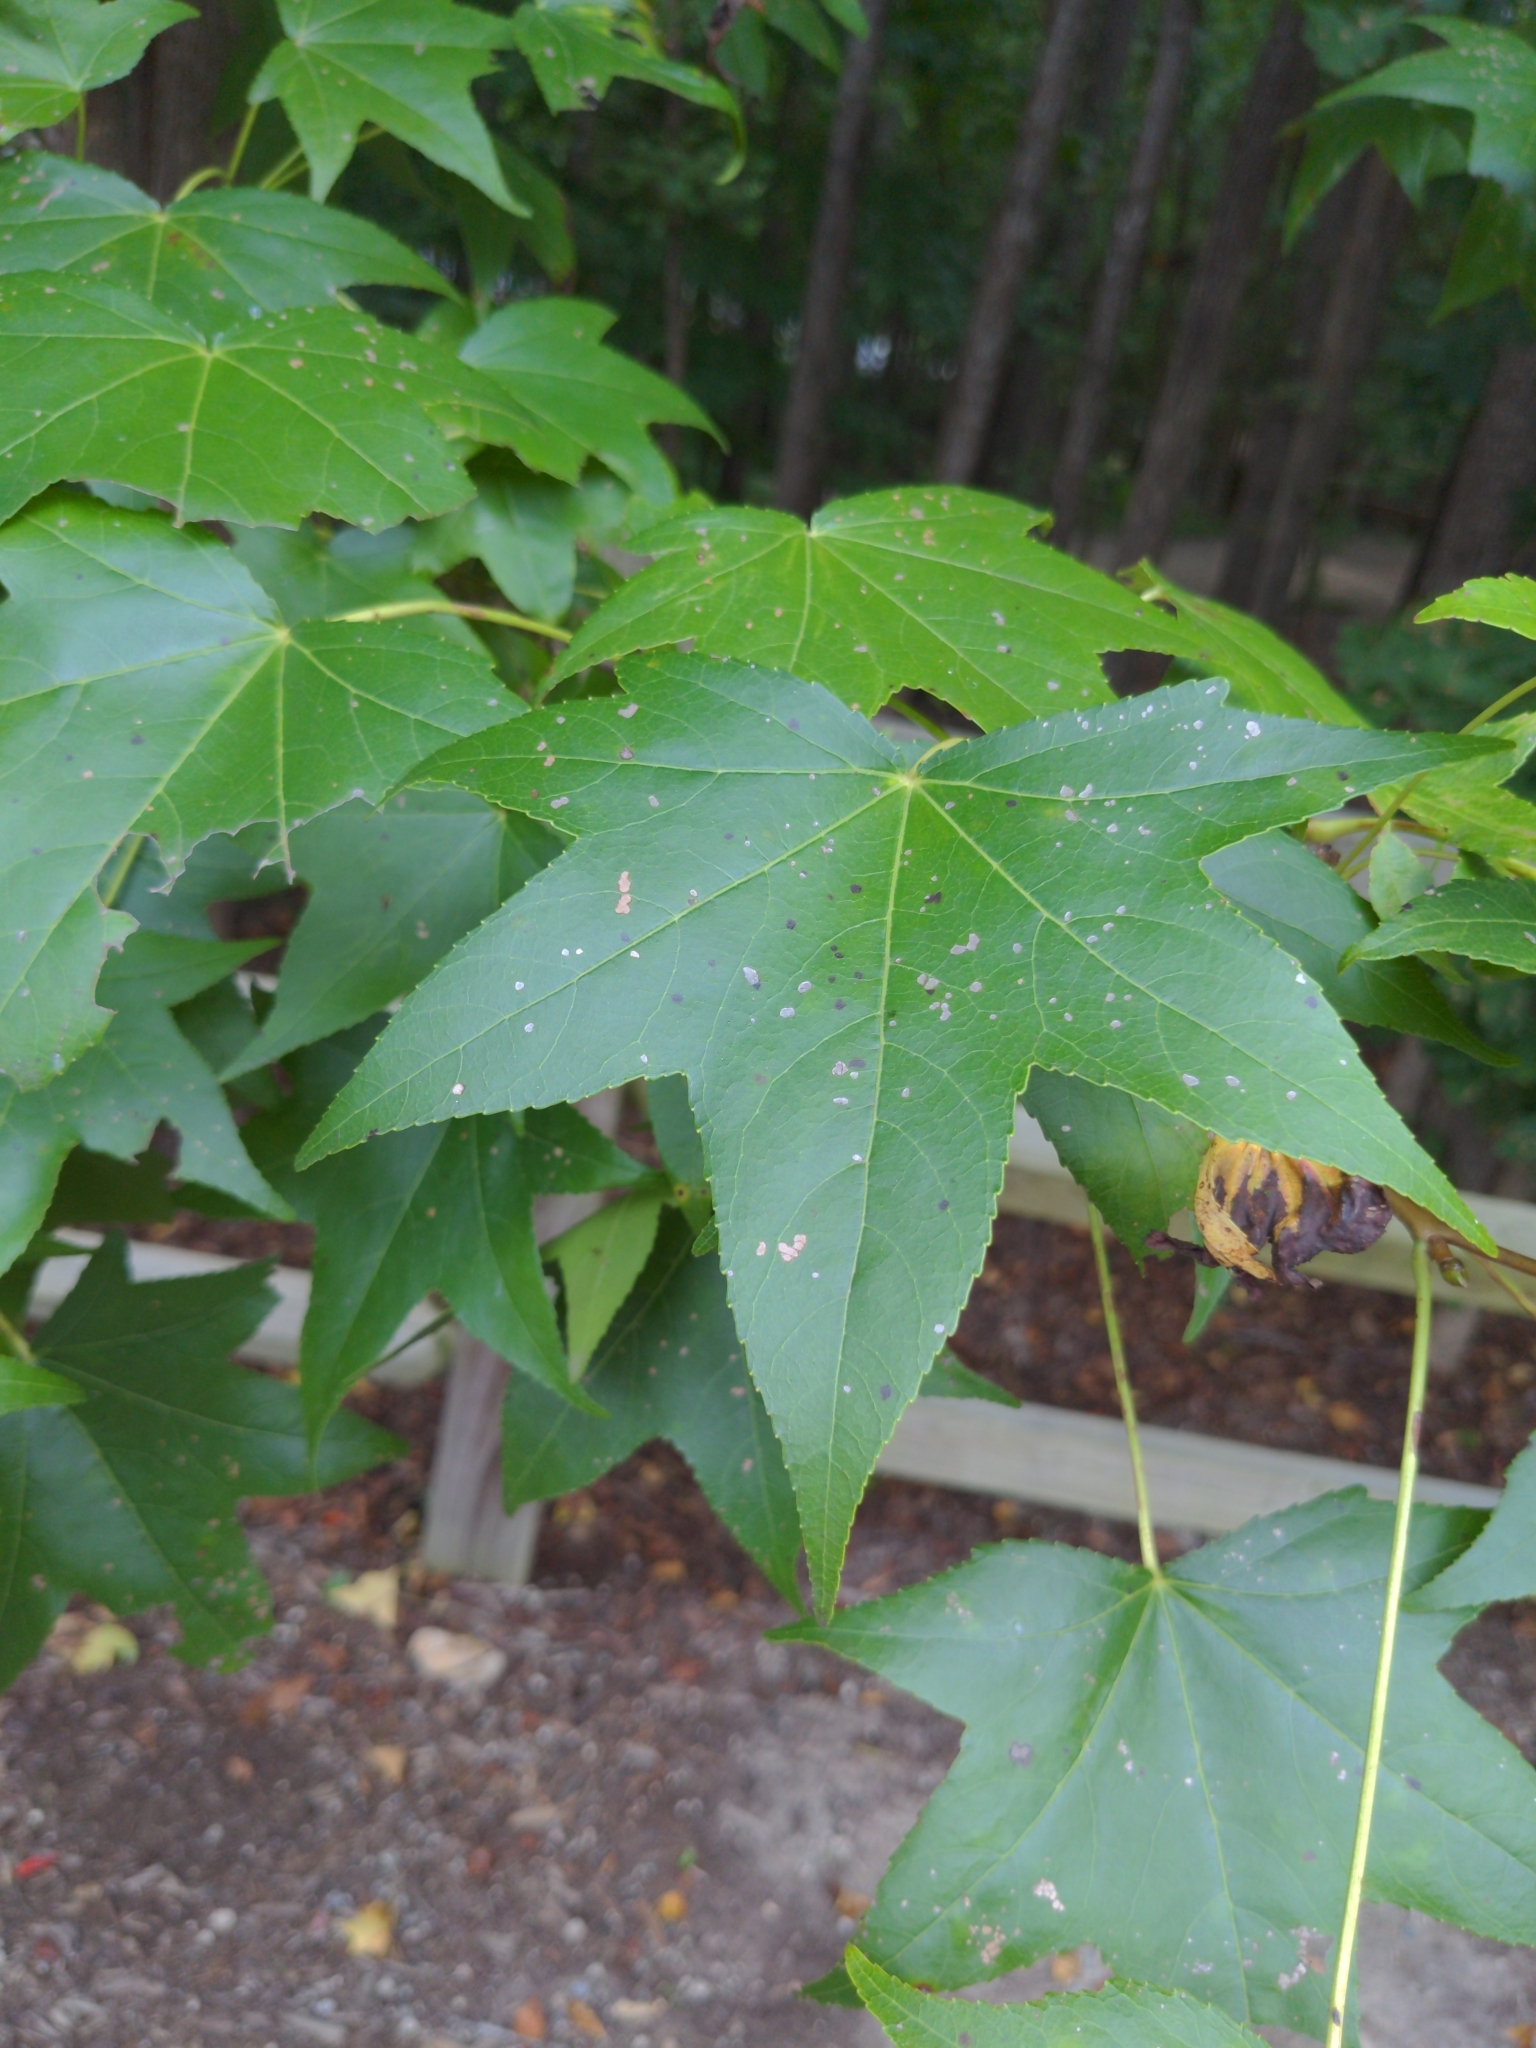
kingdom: Plantae
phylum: Tracheophyta
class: Magnoliopsida
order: Saxifragales
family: Altingiaceae
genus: Liquidambar
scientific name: Liquidambar styraciflua
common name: Sweet gum
